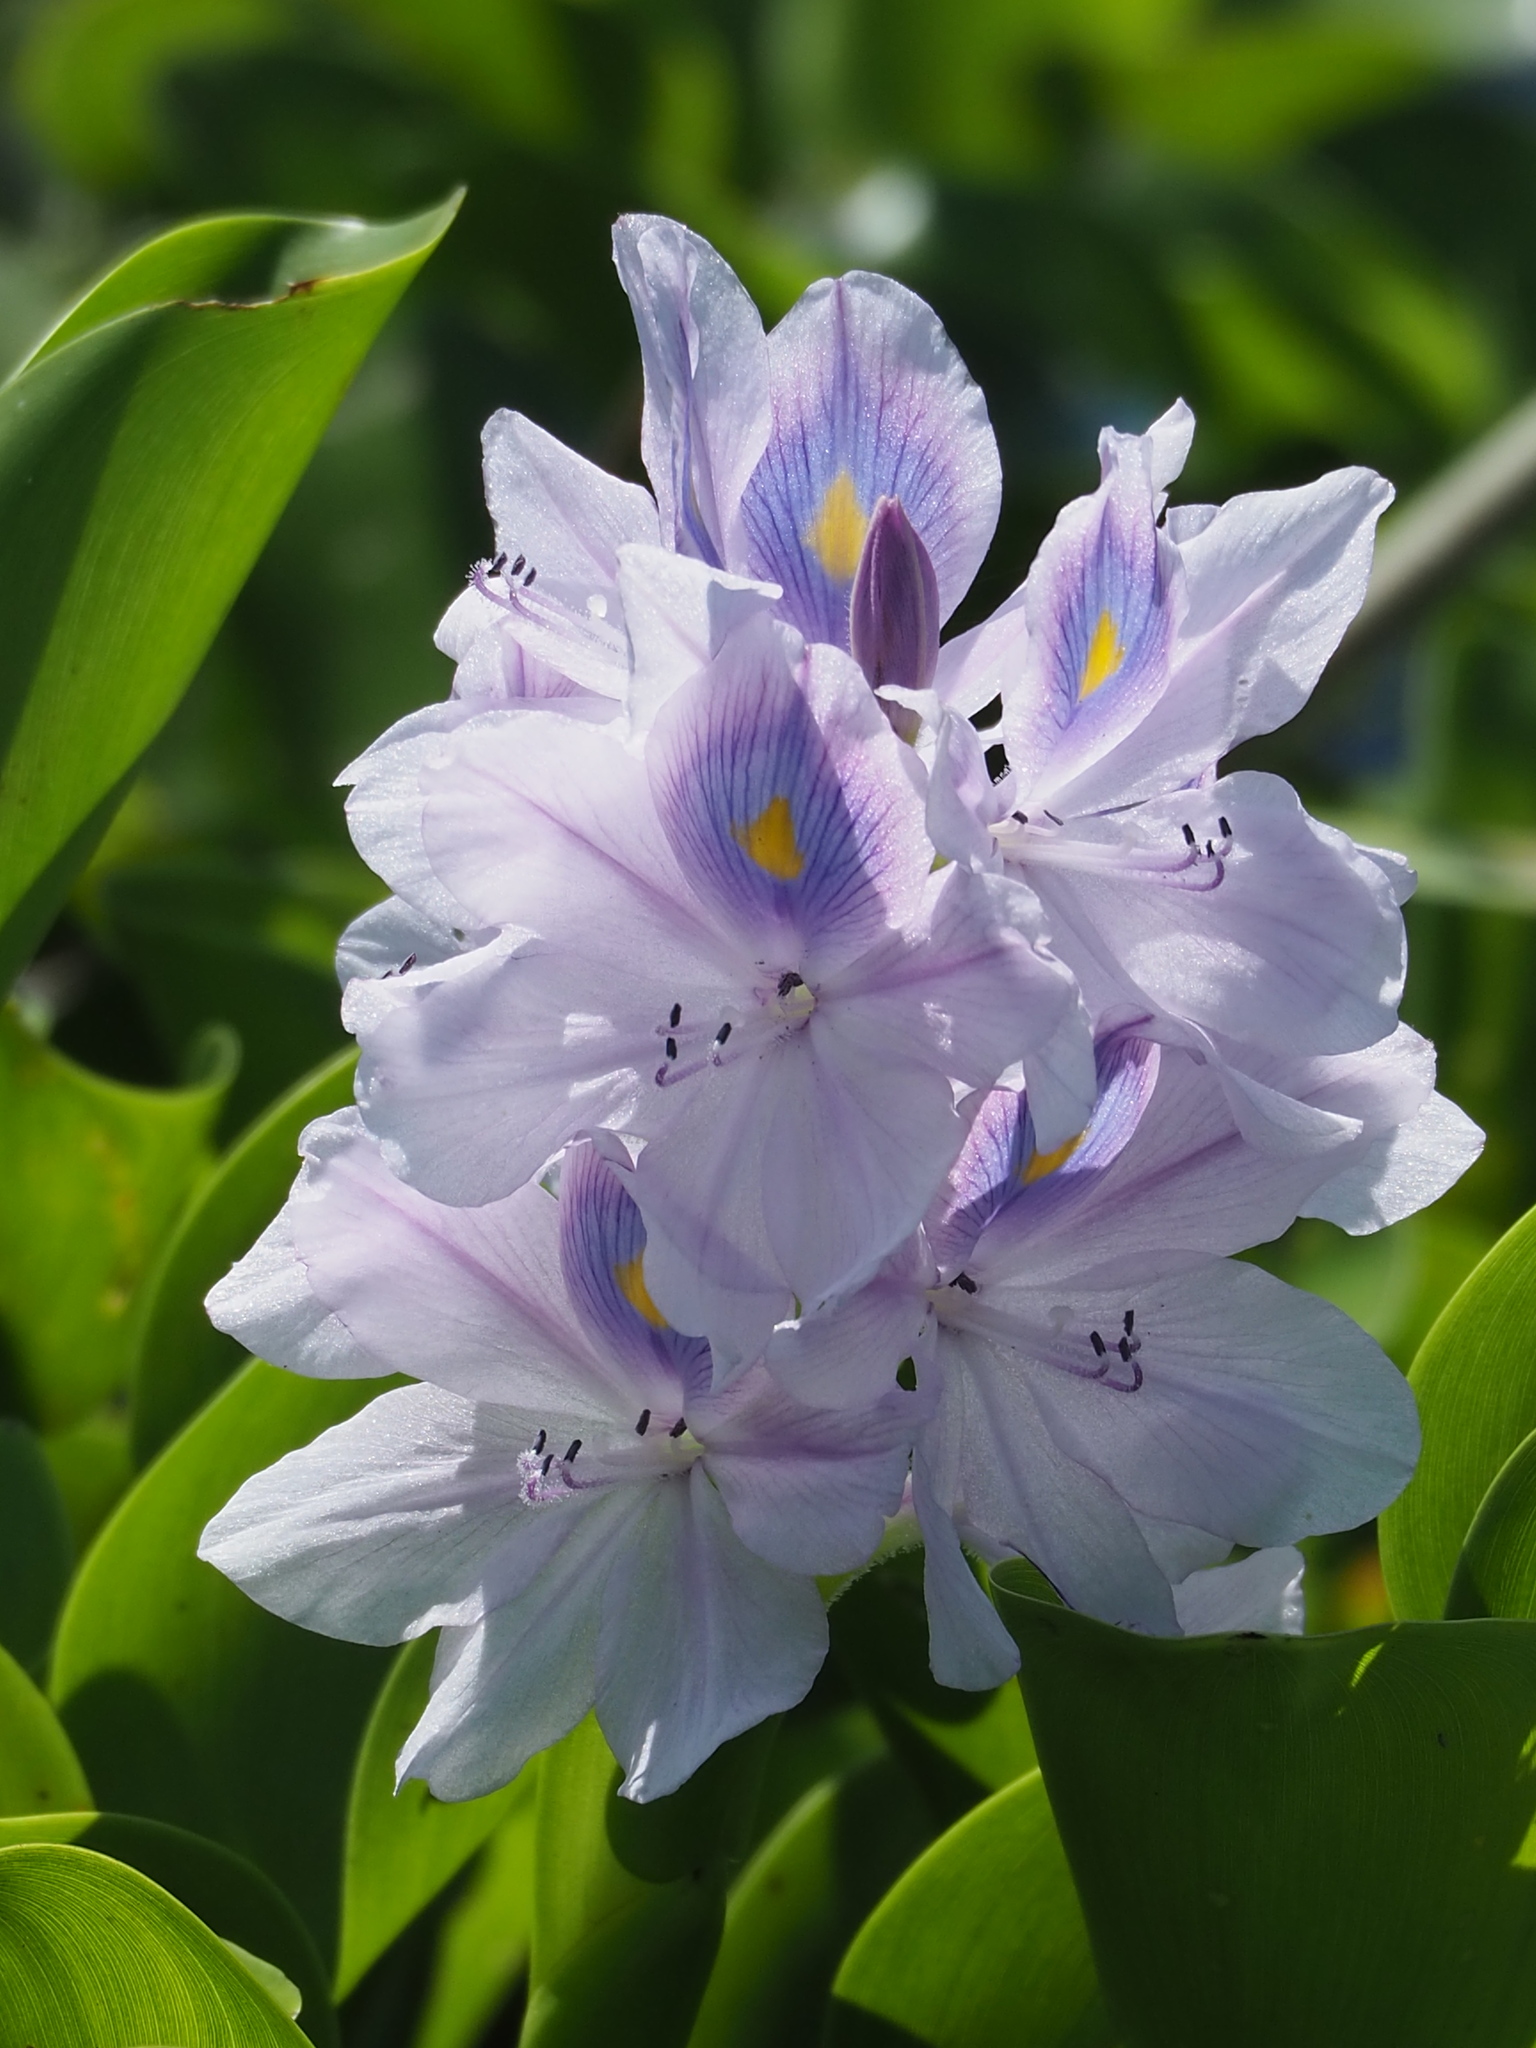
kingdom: Plantae
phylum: Tracheophyta
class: Liliopsida
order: Commelinales
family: Pontederiaceae
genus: Pontederia
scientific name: Pontederia crassipes
